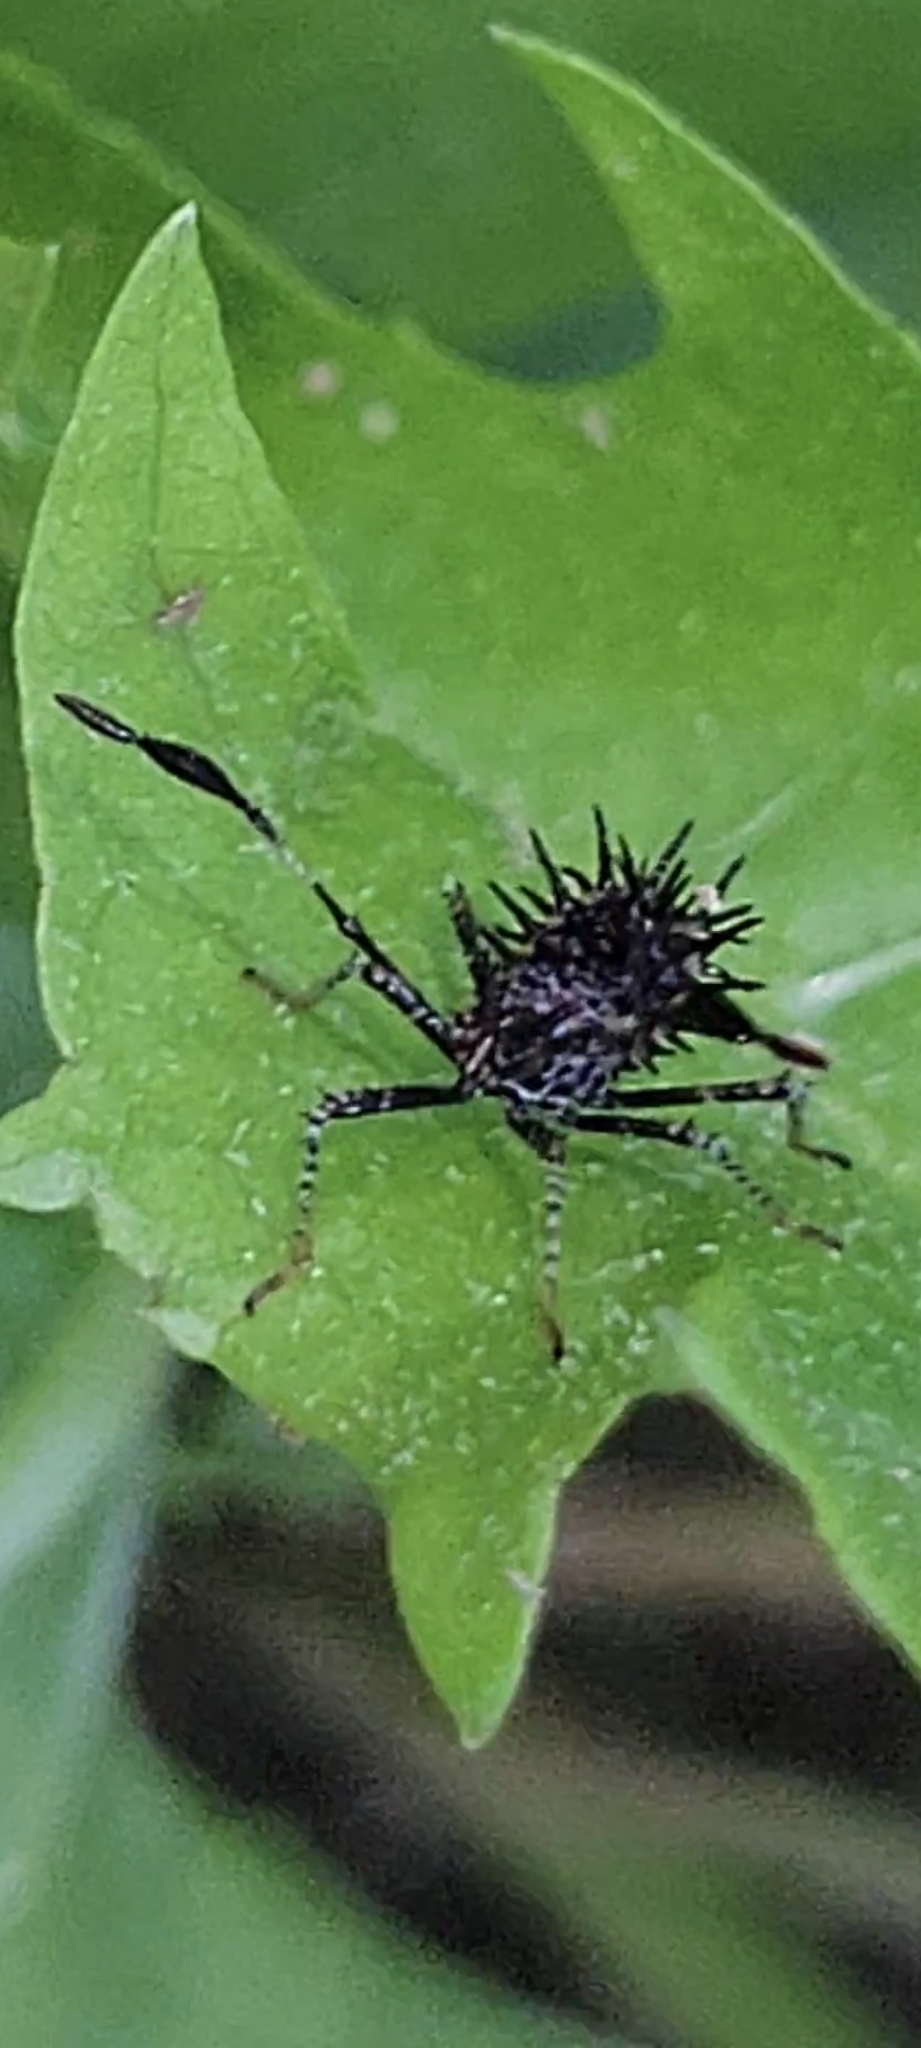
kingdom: Animalia
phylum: Arthropoda
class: Insecta
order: Hemiptera
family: Coreidae
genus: Euthochtha
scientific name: Euthochtha galeator
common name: Helmeted squash bug
